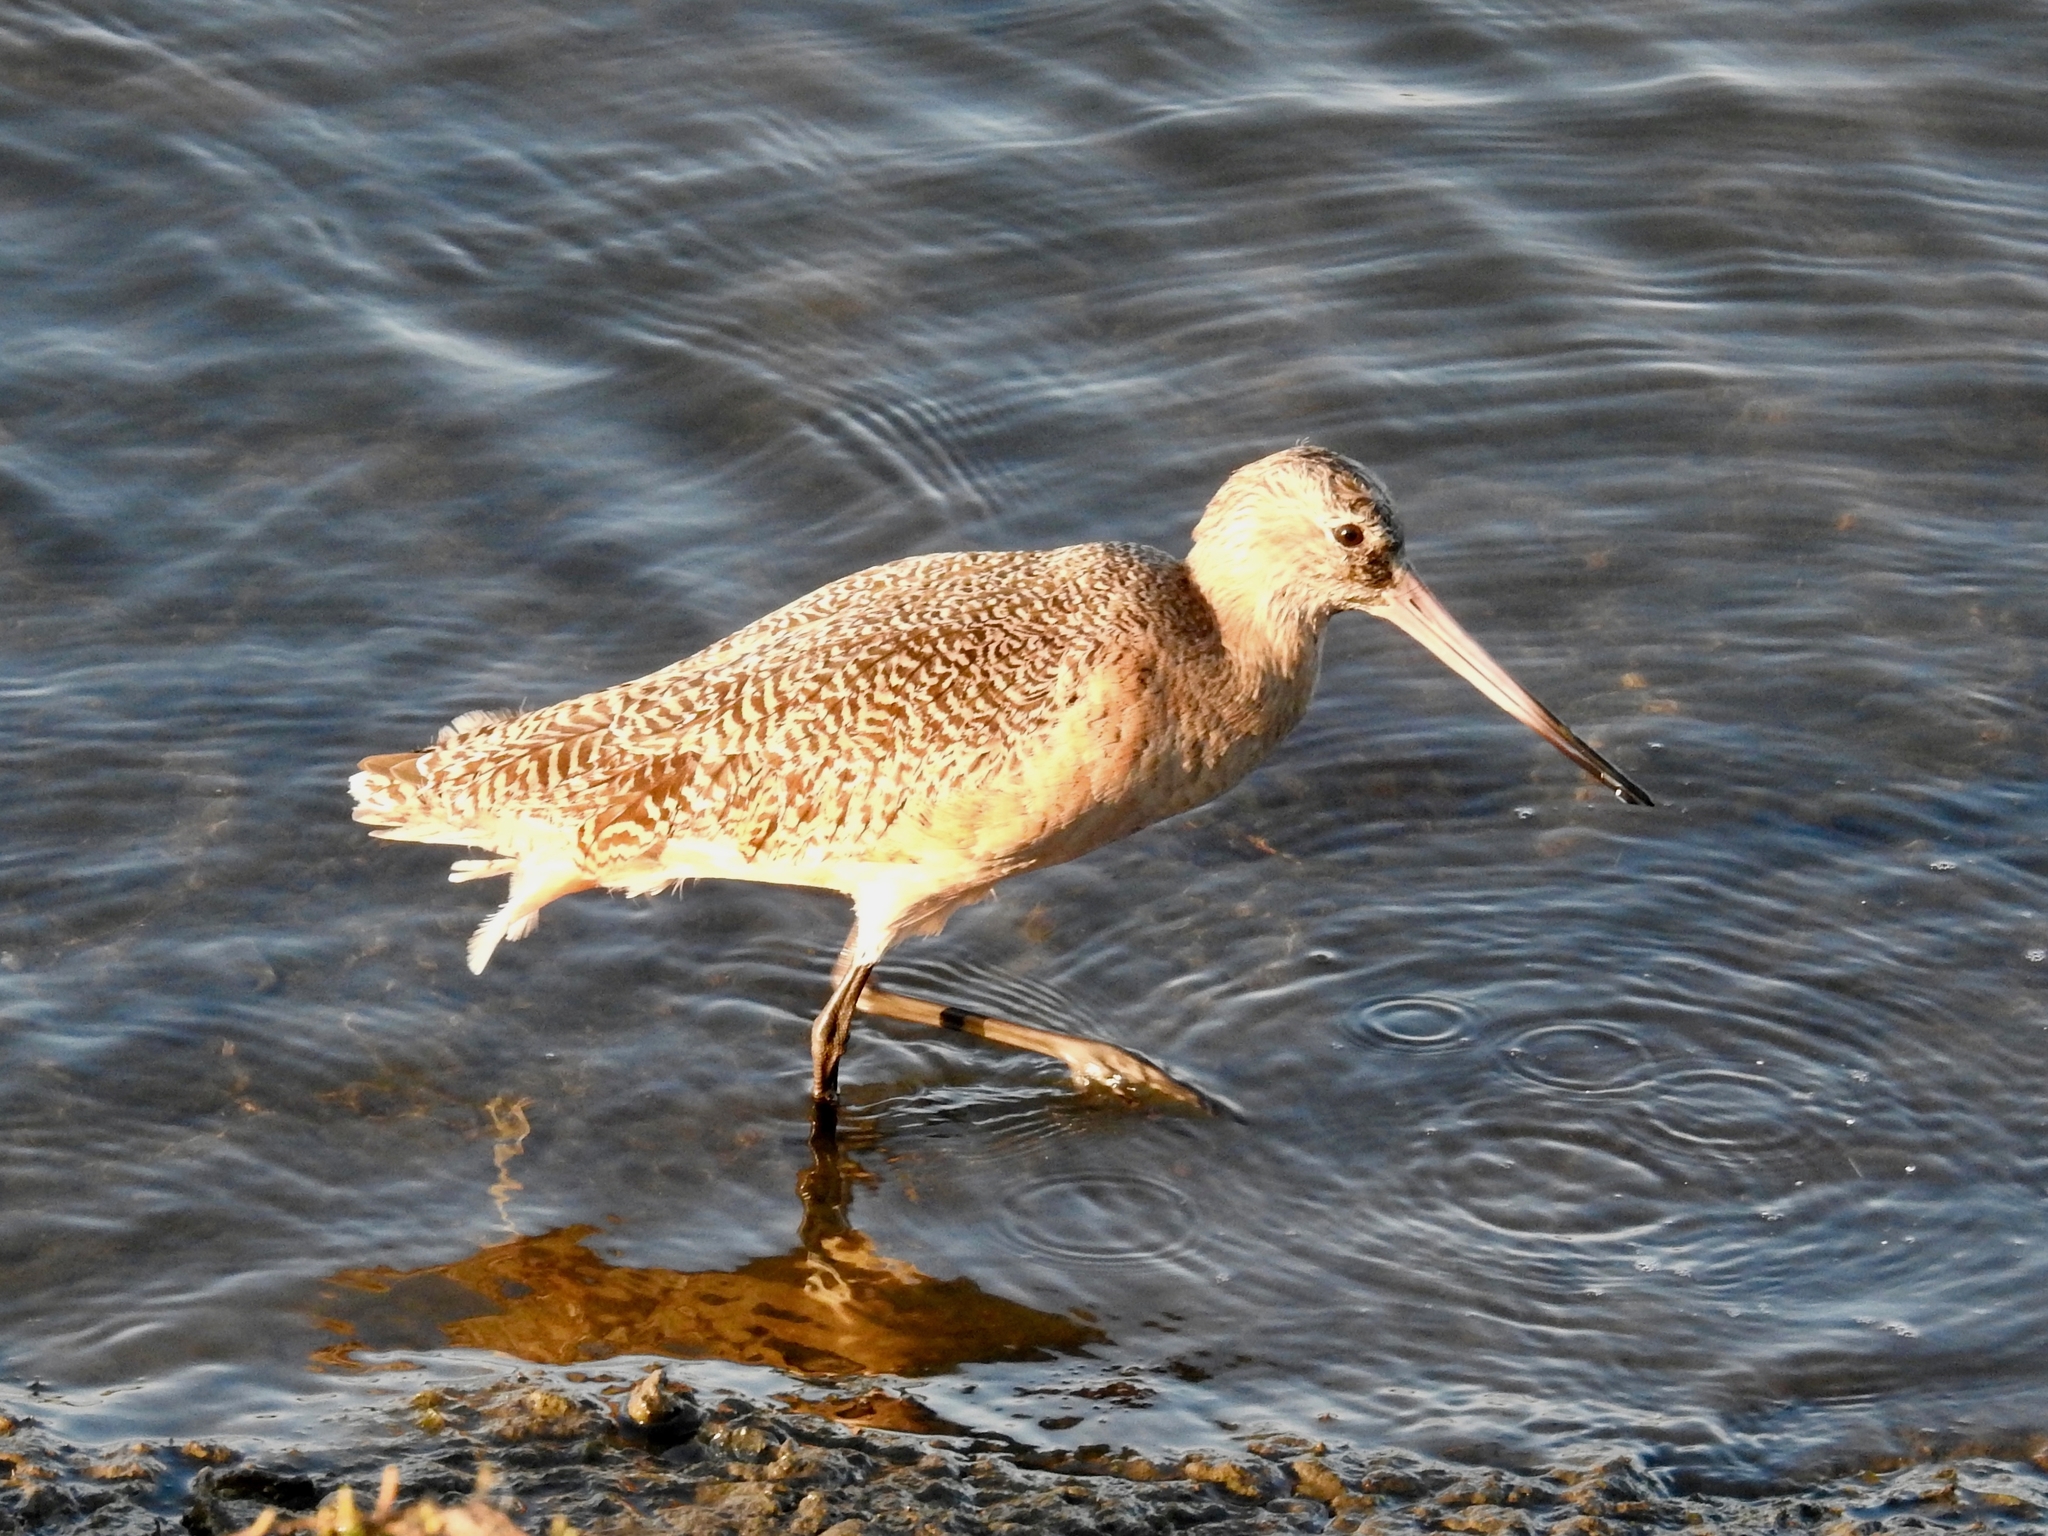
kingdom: Animalia
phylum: Chordata
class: Aves
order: Charadriiformes
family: Scolopacidae
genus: Limosa
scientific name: Limosa fedoa
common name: Marbled godwit
